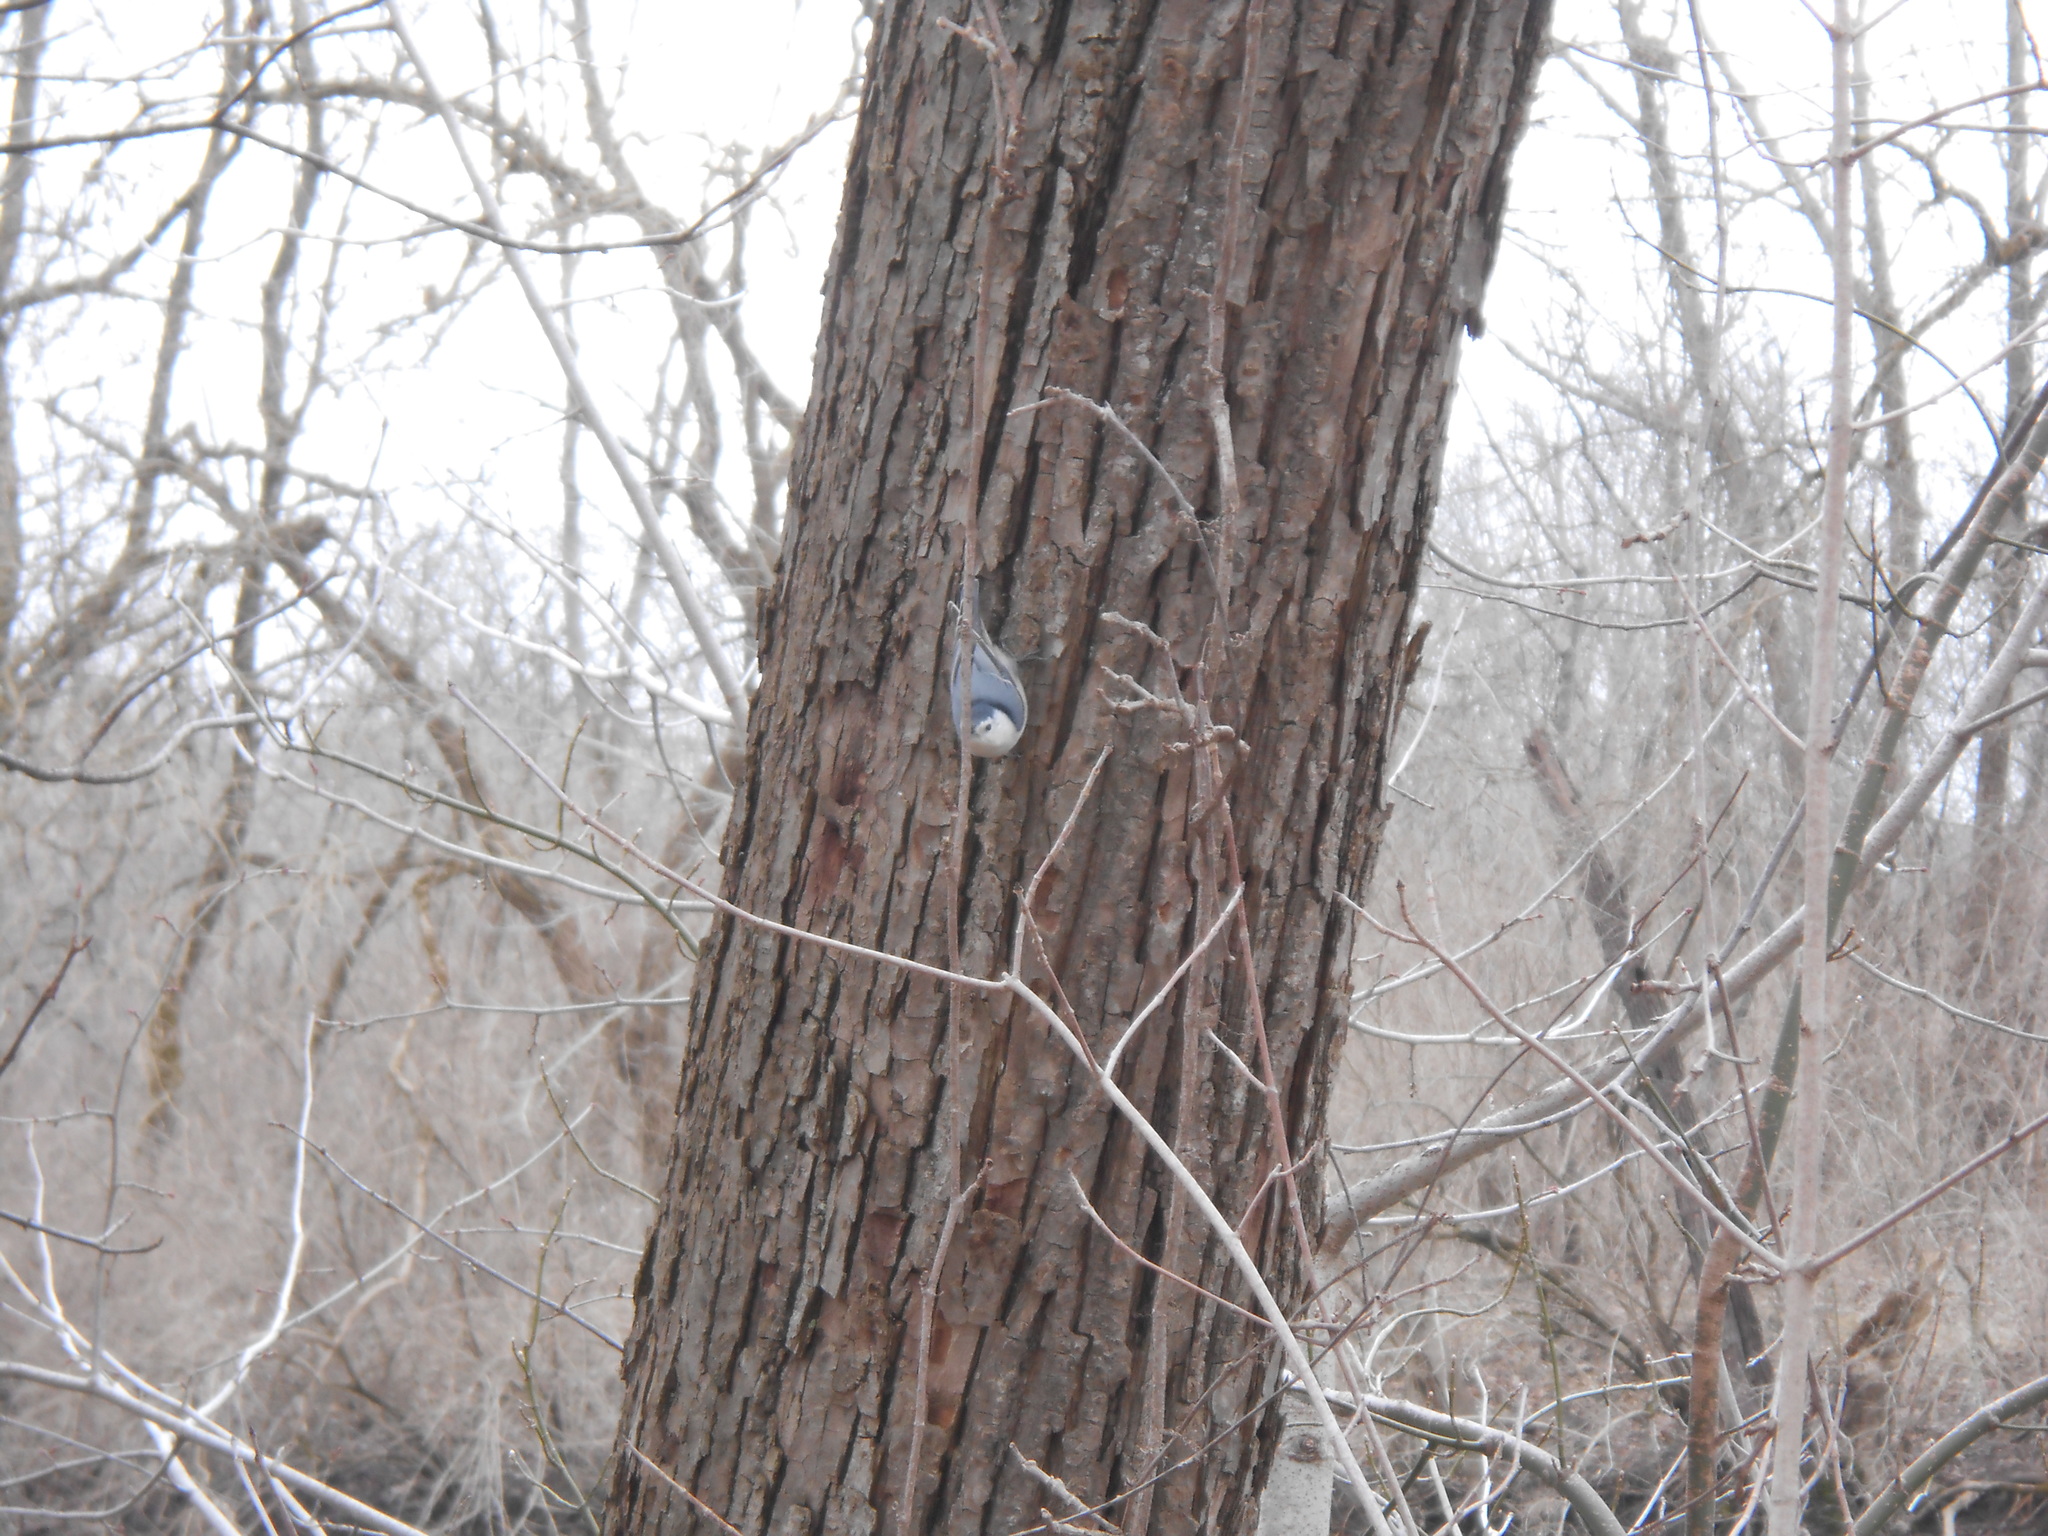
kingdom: Animalia
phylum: Chordata
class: Aves
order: Passeriformes
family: Sittidae
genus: Sitta
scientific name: Sitta carolinensis
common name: White-breasted nuthatch
